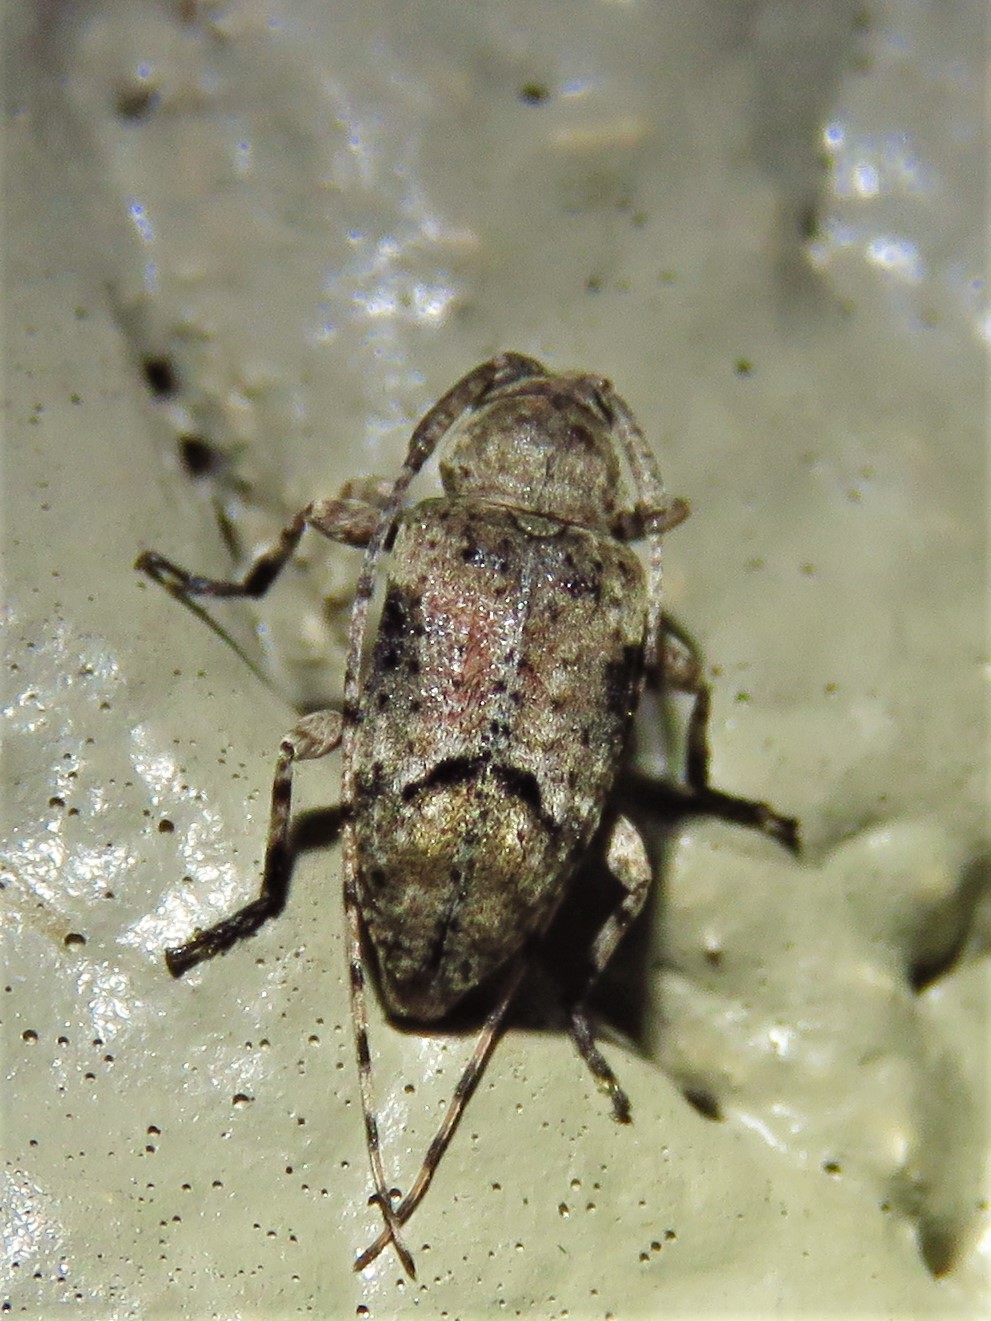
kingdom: Animalia
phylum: Arthropoda
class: Insecta
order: Coleoptera
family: Cerambycidae
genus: Sternidius
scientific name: Sternidius mimeticus
